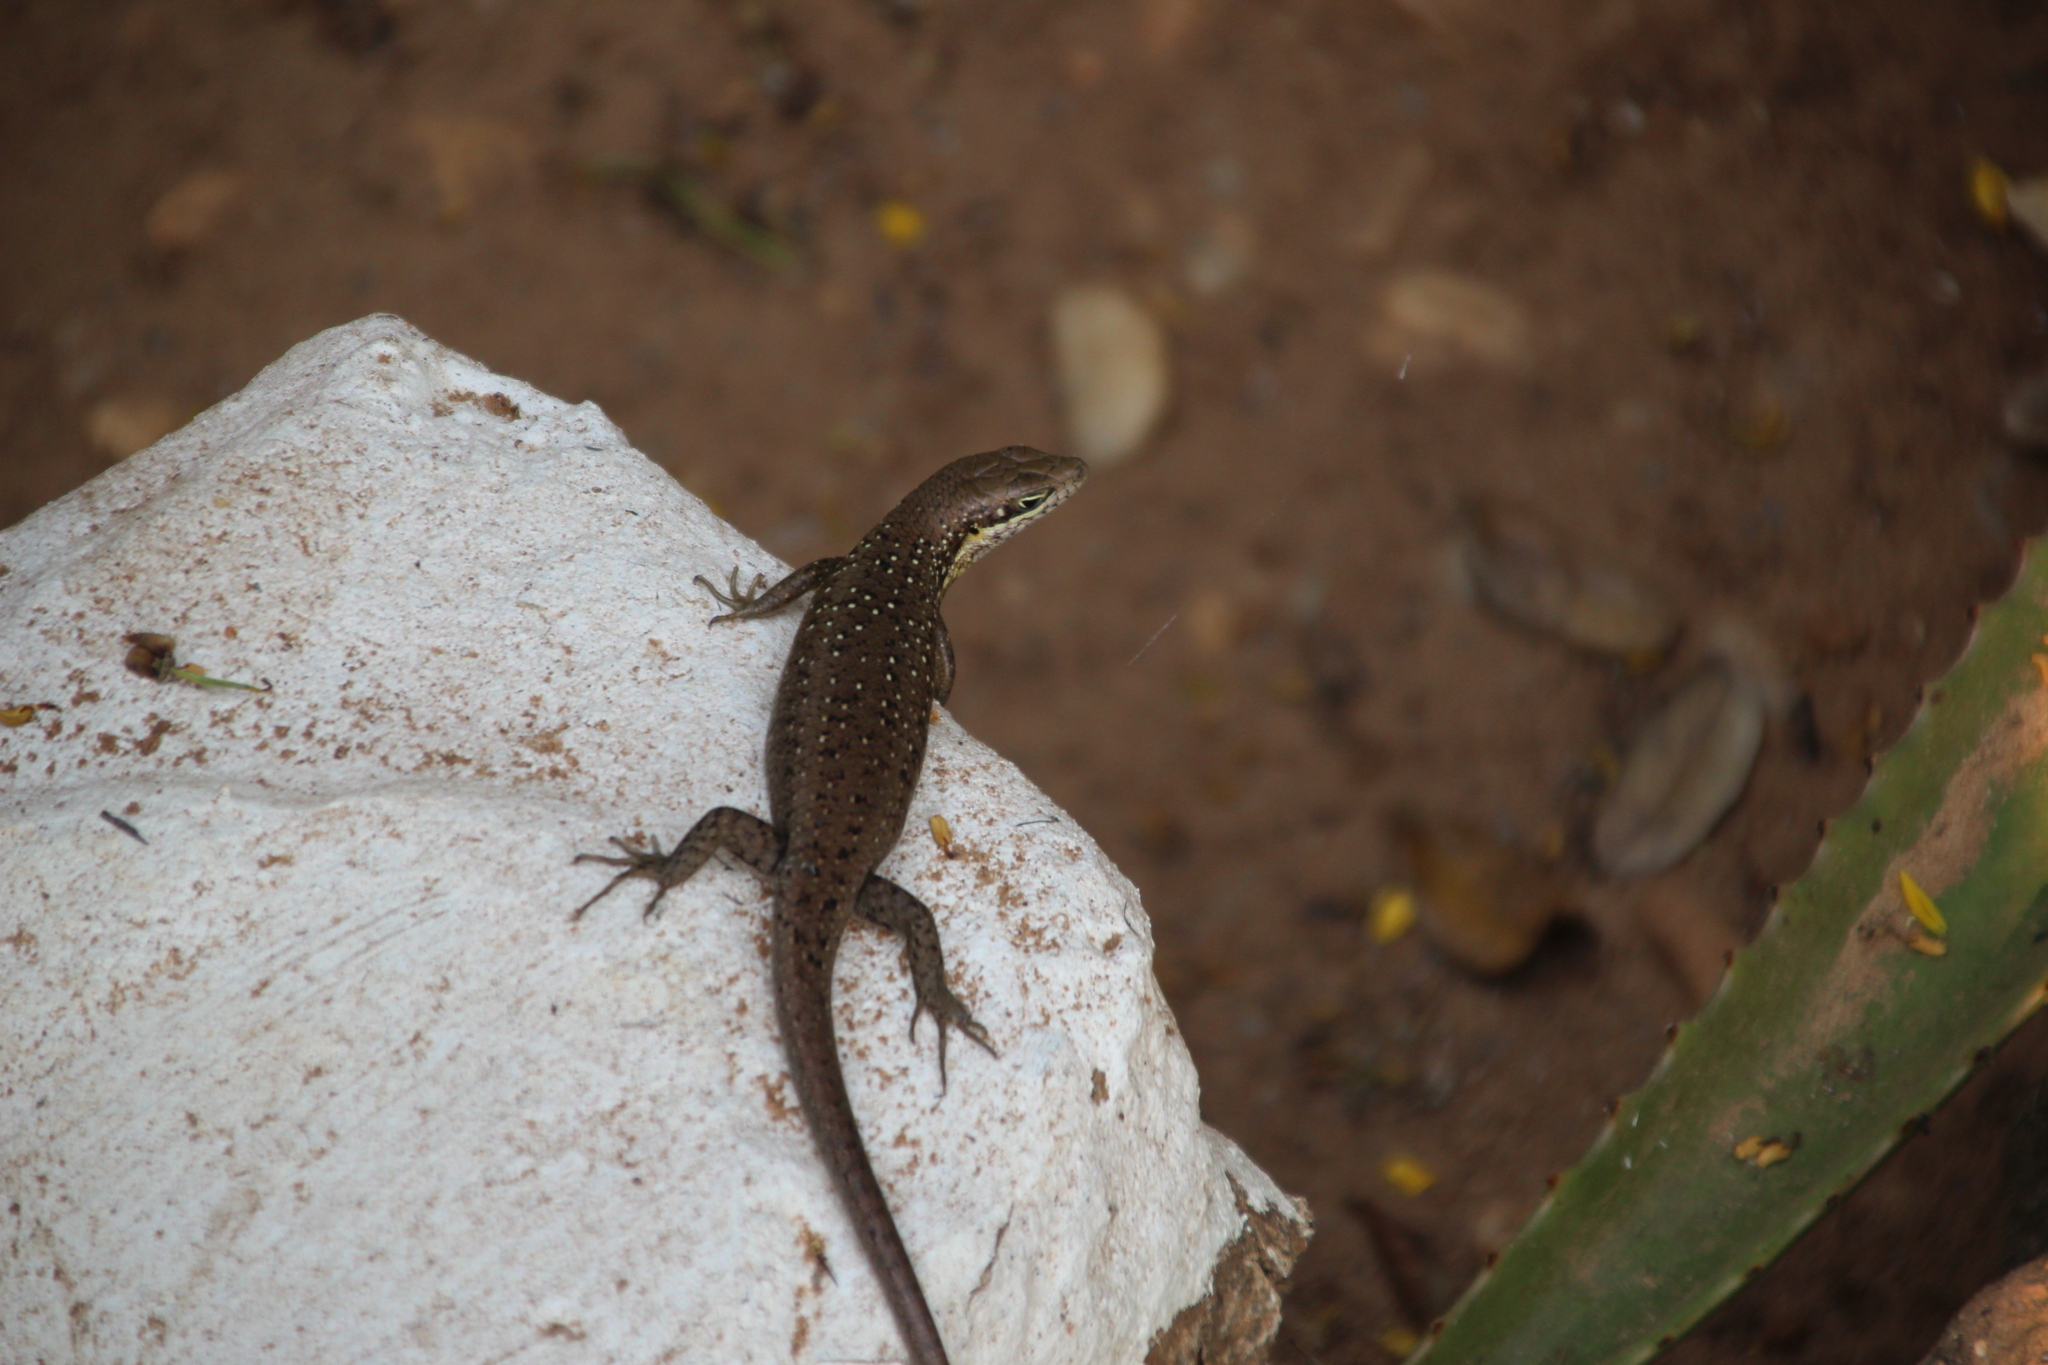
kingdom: Animalia
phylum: Chordata
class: Squamata
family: Scincidae
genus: Trachylepis
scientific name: Trachylepis maculilabris
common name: Speckle-lipped mabuya
